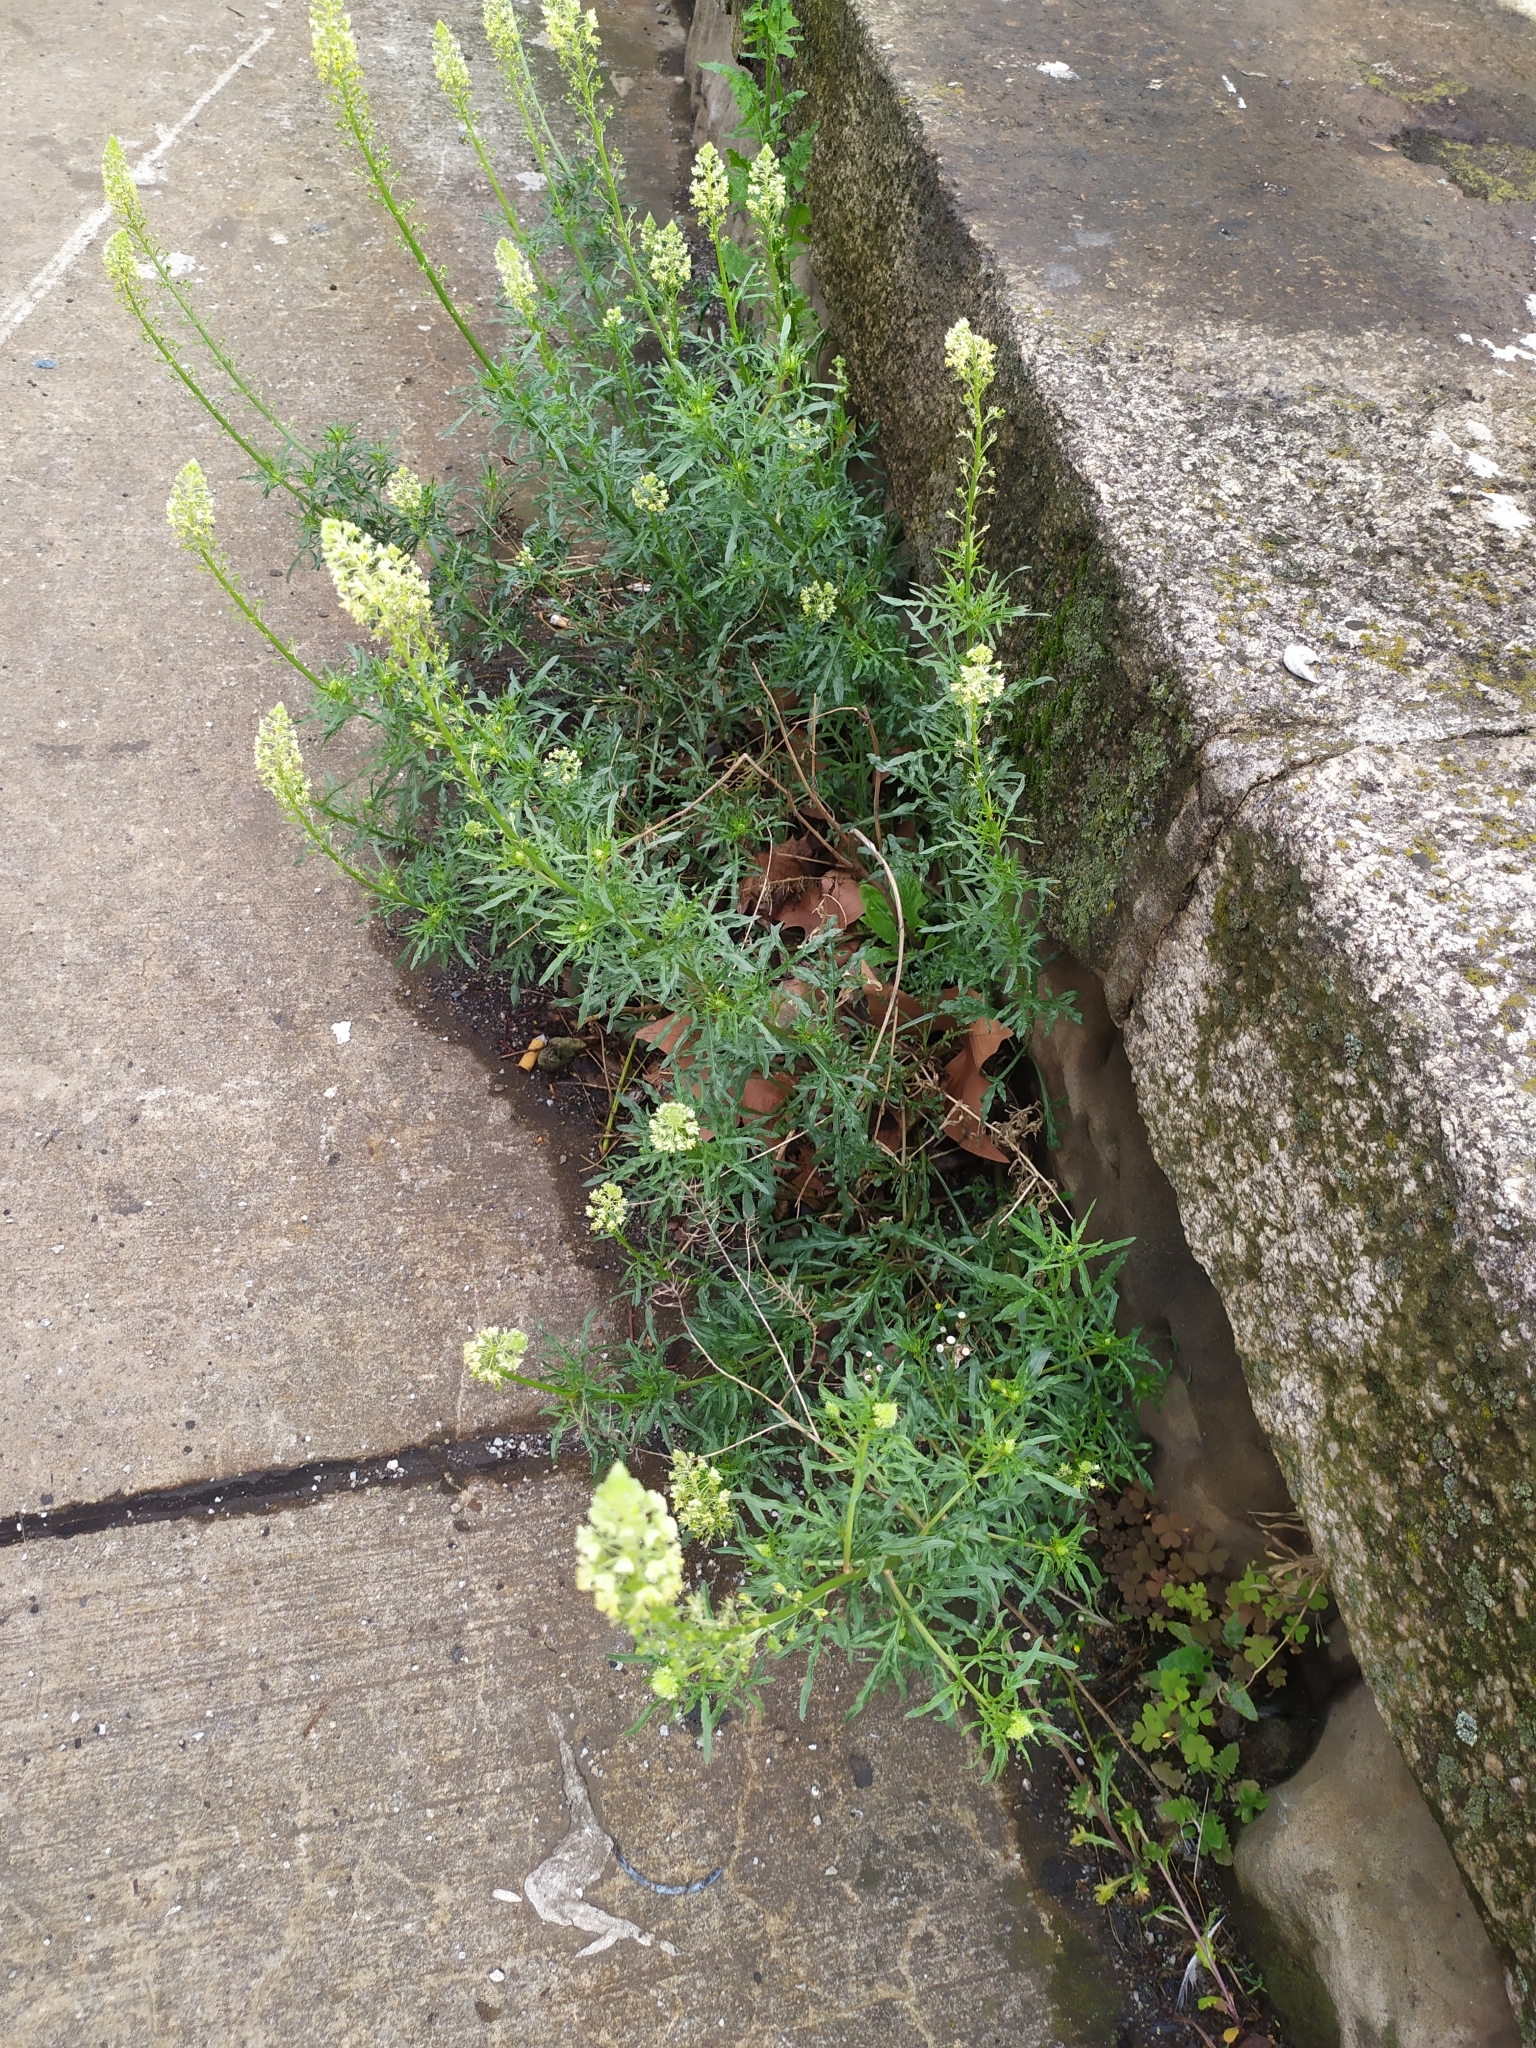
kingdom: Plantae
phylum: Tracheophyta
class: Magnoliopsida
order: Brassicales
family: Resedaceae
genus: Reseda
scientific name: Reseda lutea
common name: Wild mignonette
